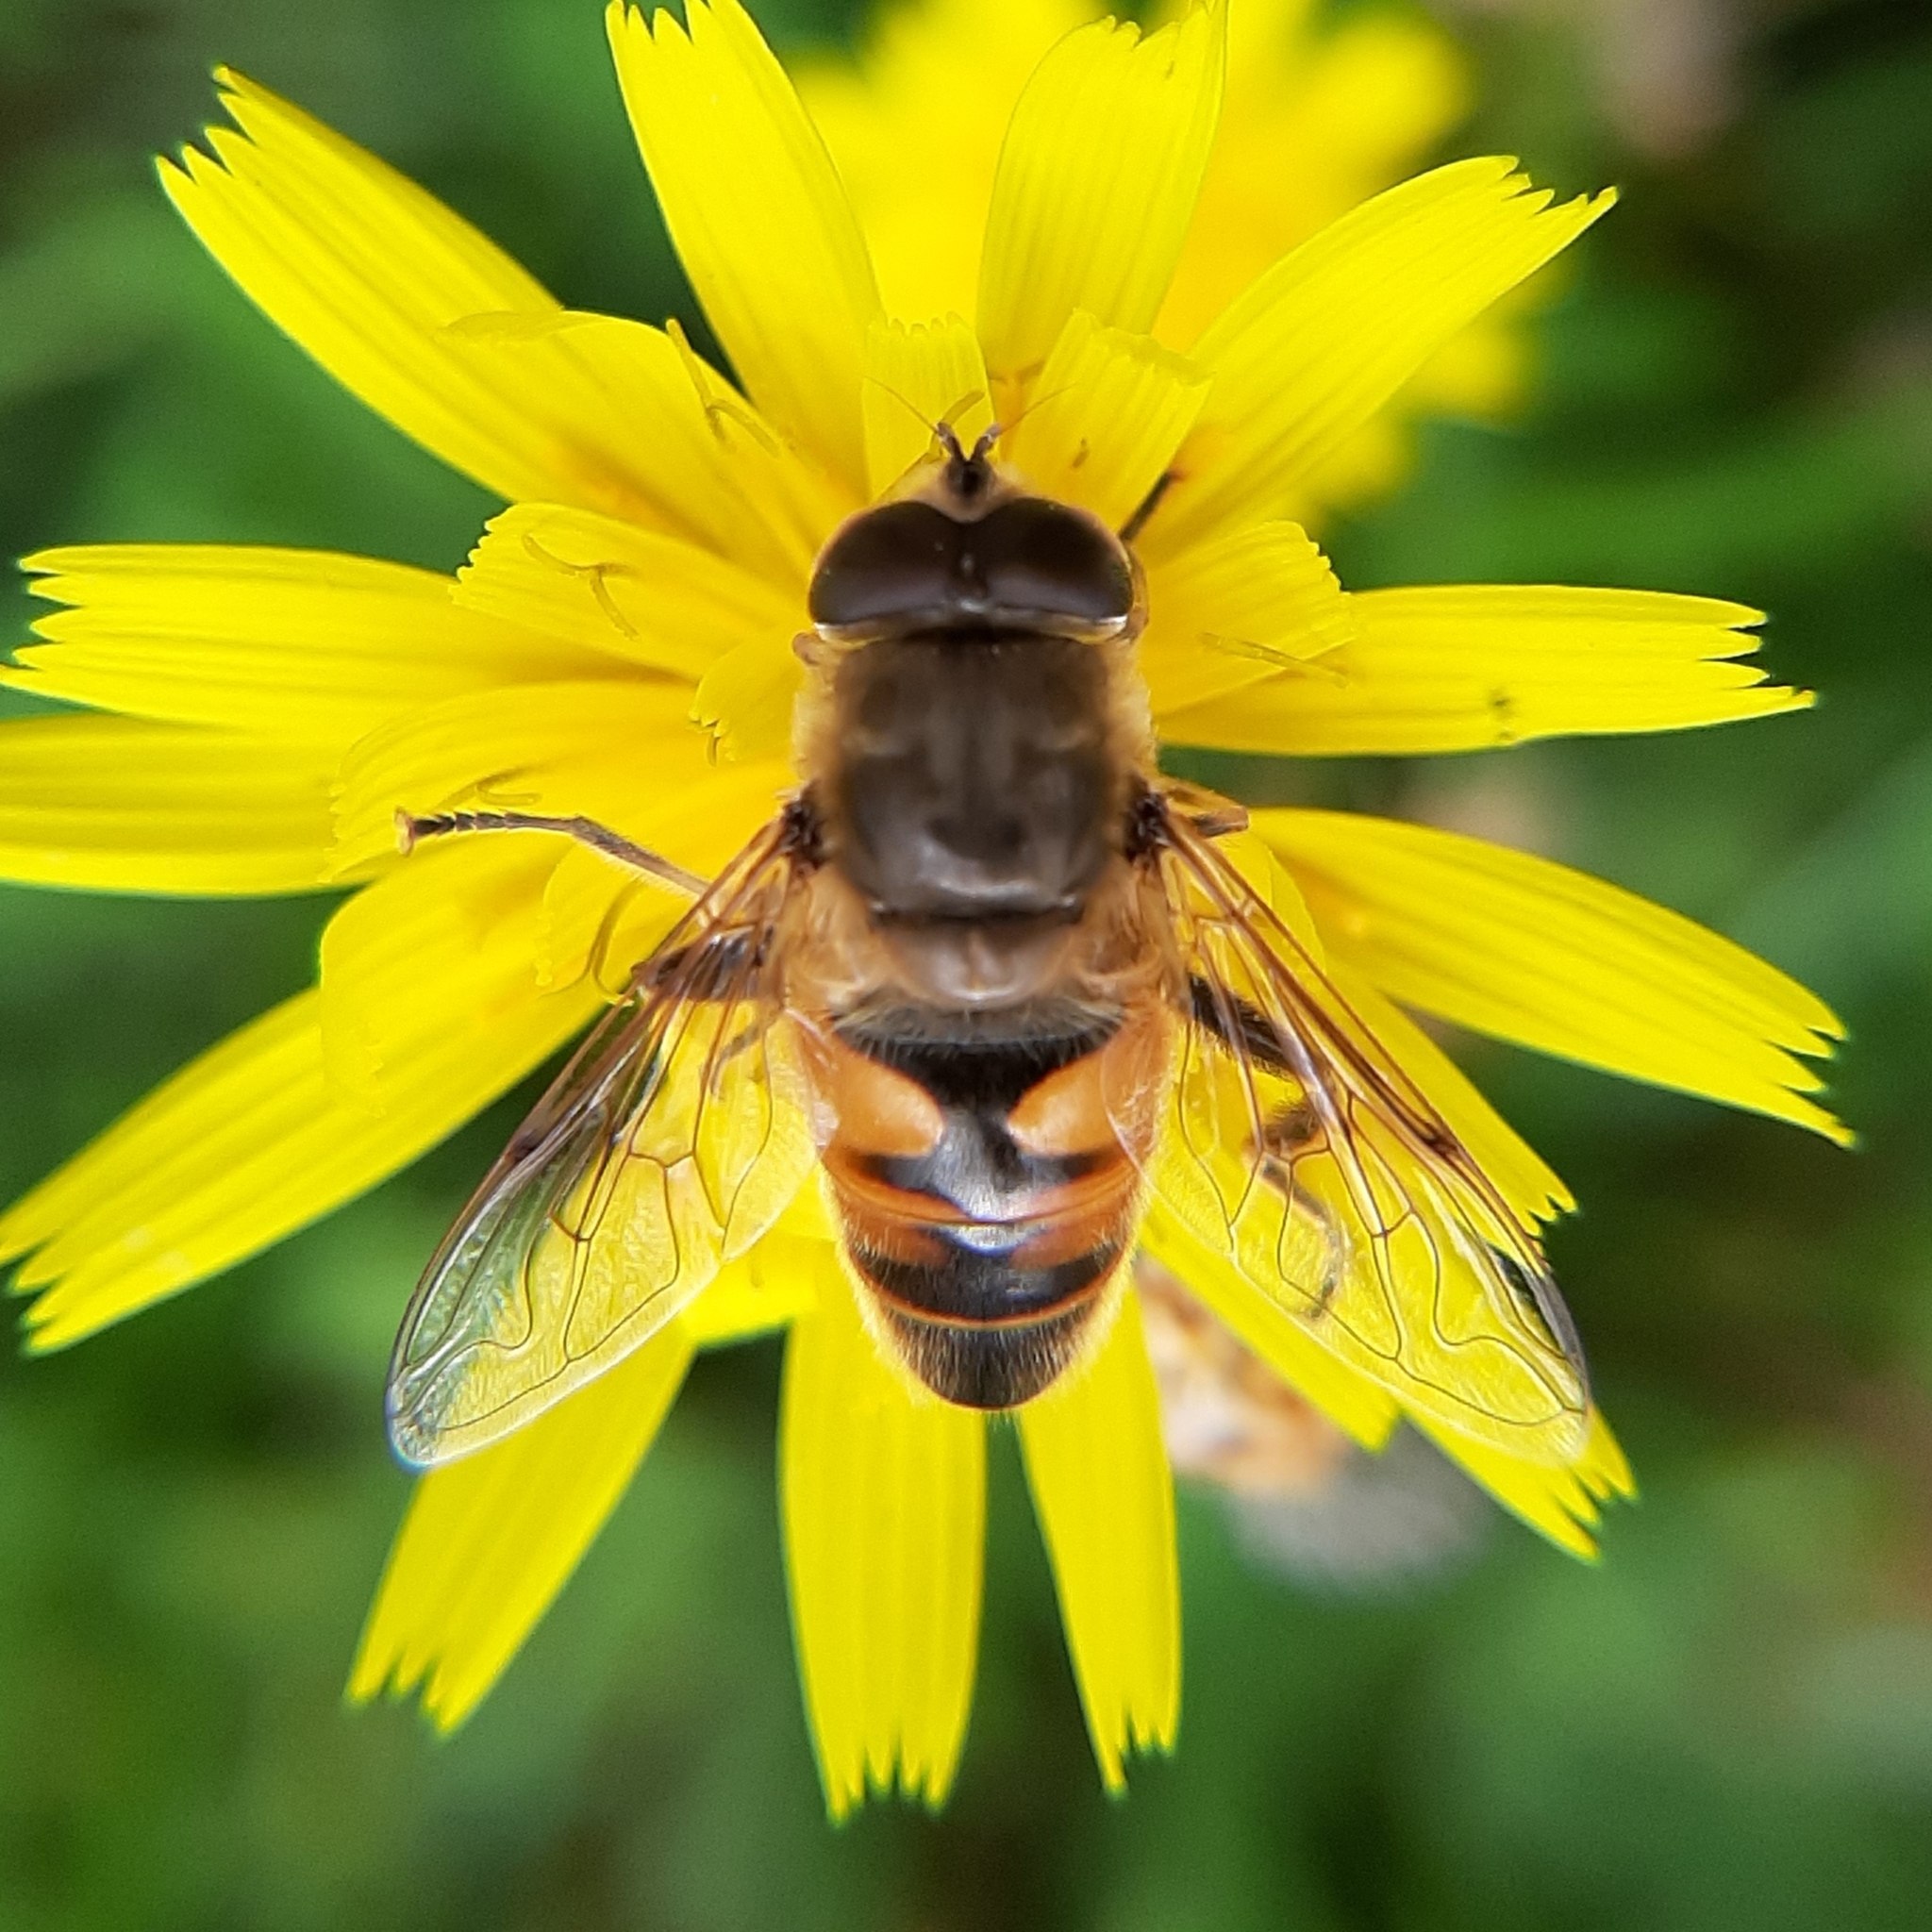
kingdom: Animalia
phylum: Arthropoda
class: Insecta
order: Diptera
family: Syrphidae
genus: Eristalis
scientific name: Eristalis tenax
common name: Drone fly
